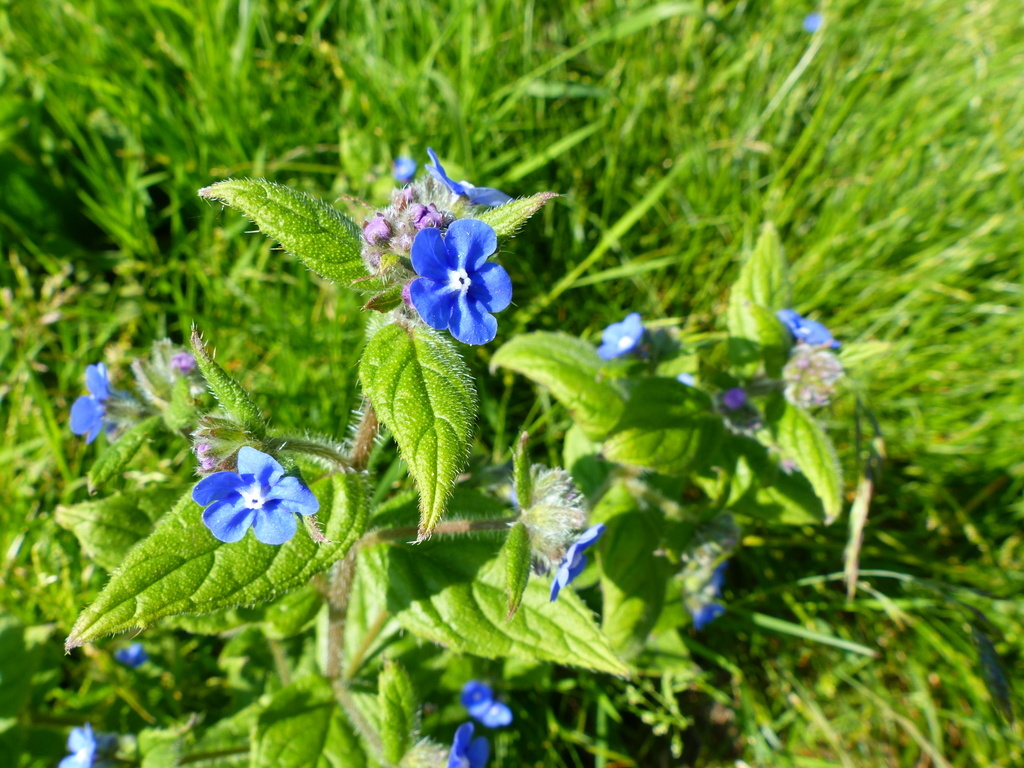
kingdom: Plantae
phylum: Tracheophyta
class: Magnoliopsida
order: Boraginales
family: Boraginaceae
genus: Pentaglottis
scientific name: Pentaglottis sempervirens
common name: Green alkanet
